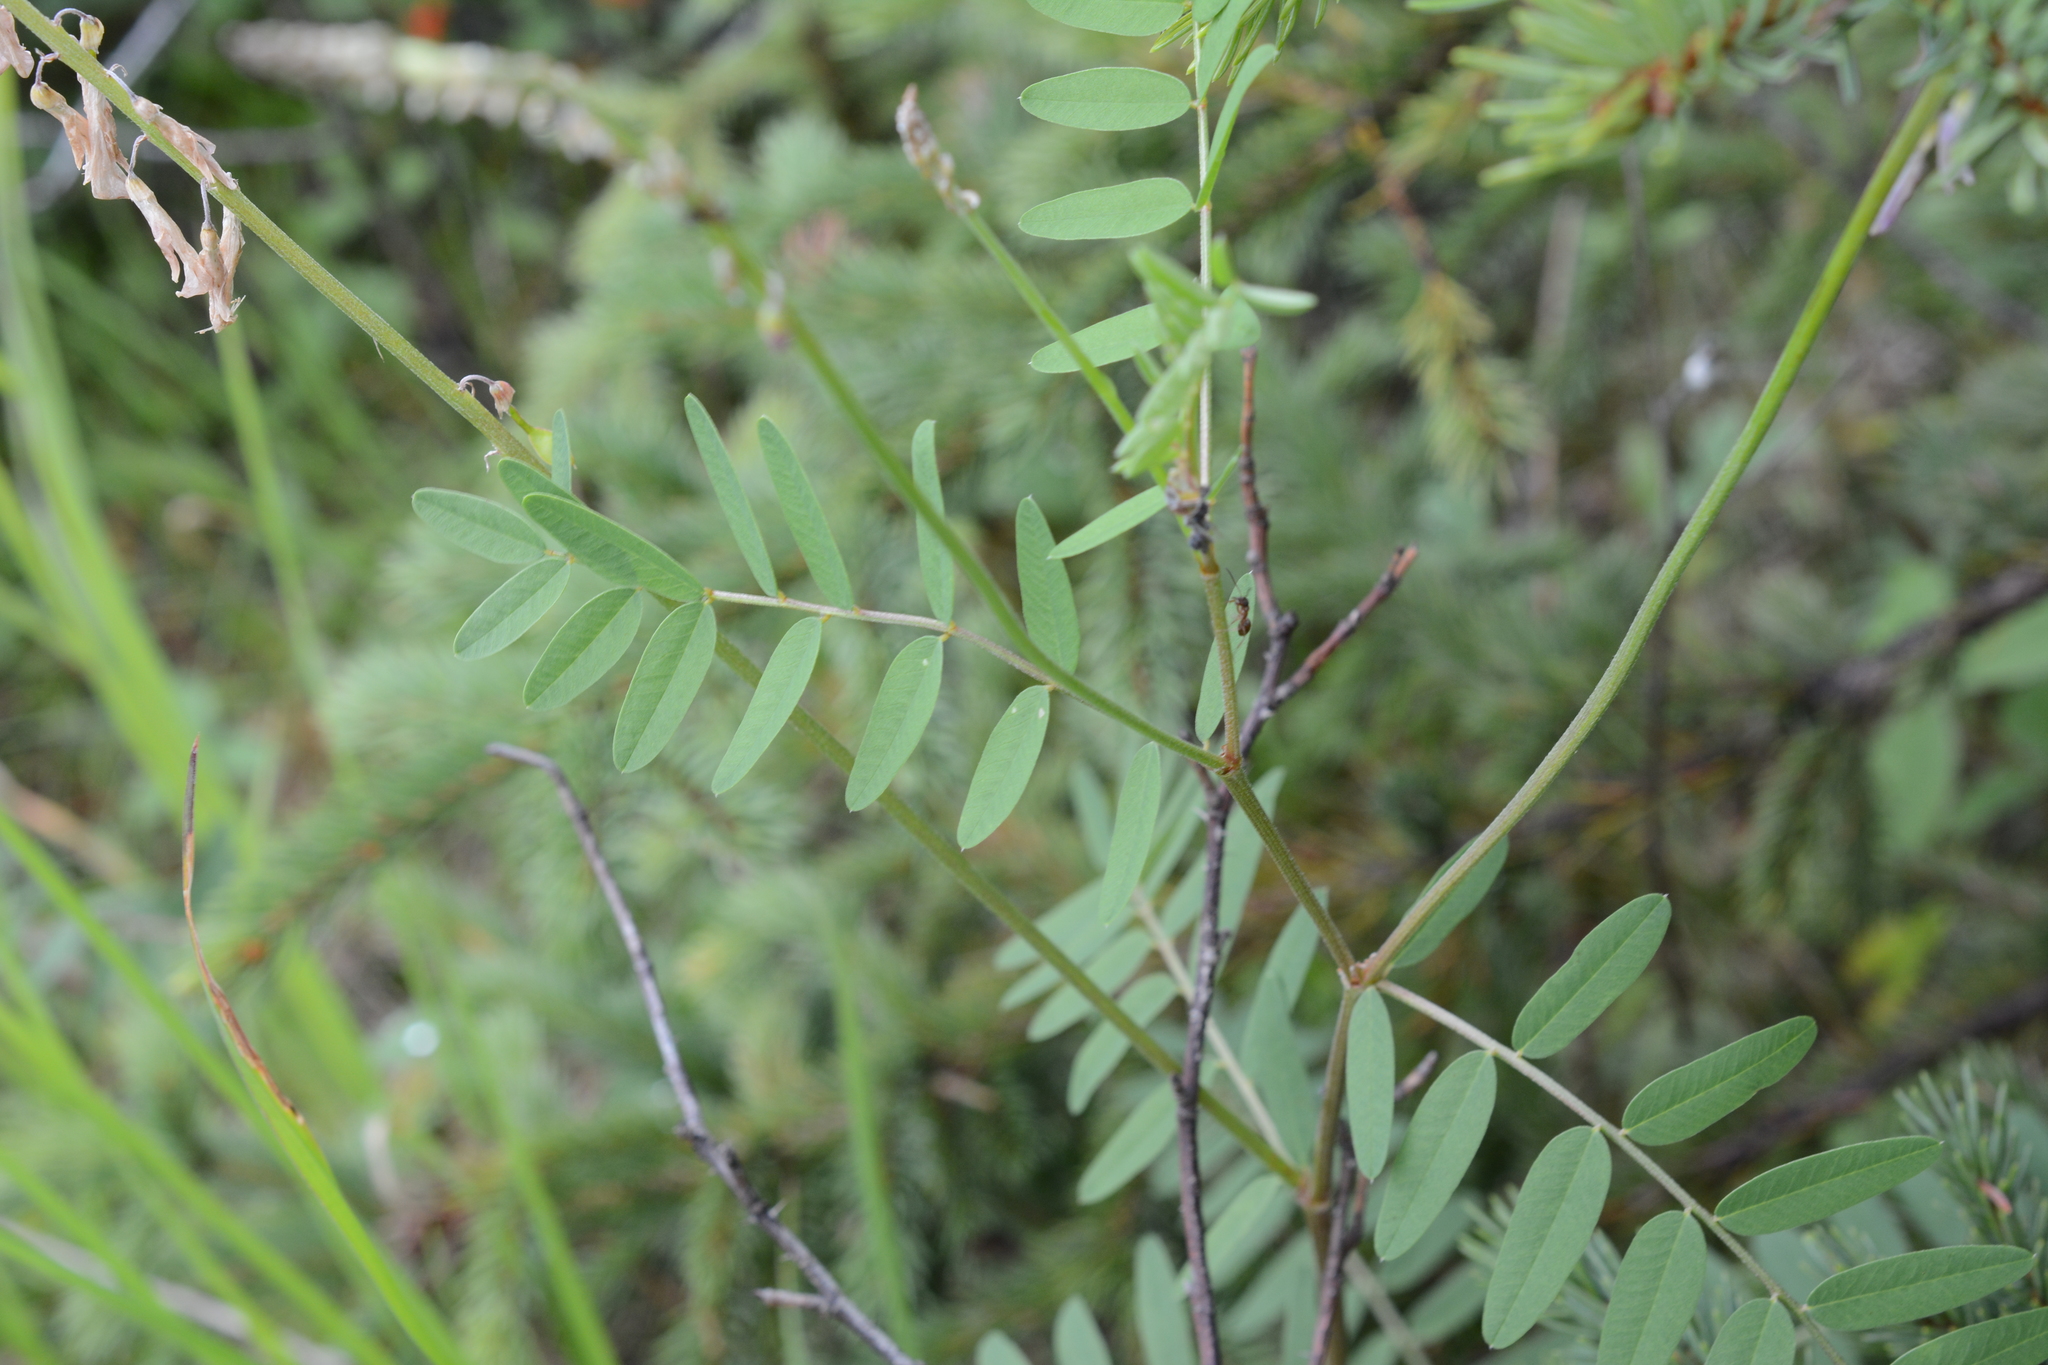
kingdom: Plantae
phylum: Tracheophyta
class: Magnoliopsida
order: Fabales
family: Fabaceae
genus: Hedysarum
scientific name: Hedysarum alpinum
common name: Alpine sweet-vetch
